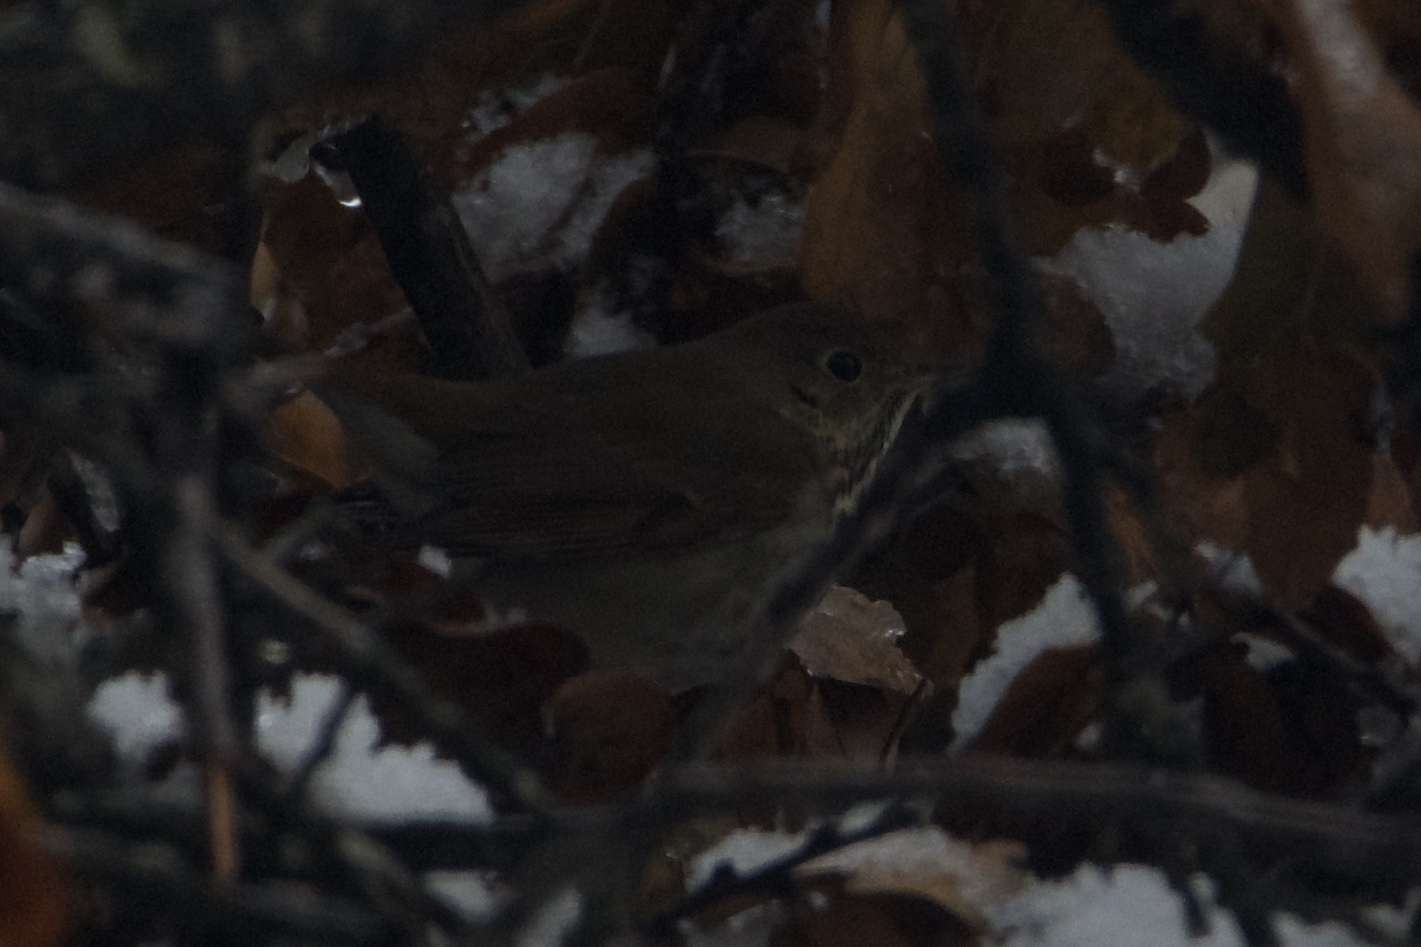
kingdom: Animalia
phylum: Chordata
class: Aves
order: Passeriformes
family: Turdidae
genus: Catharus
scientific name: Catharus guttatus
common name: Hermit thrush
